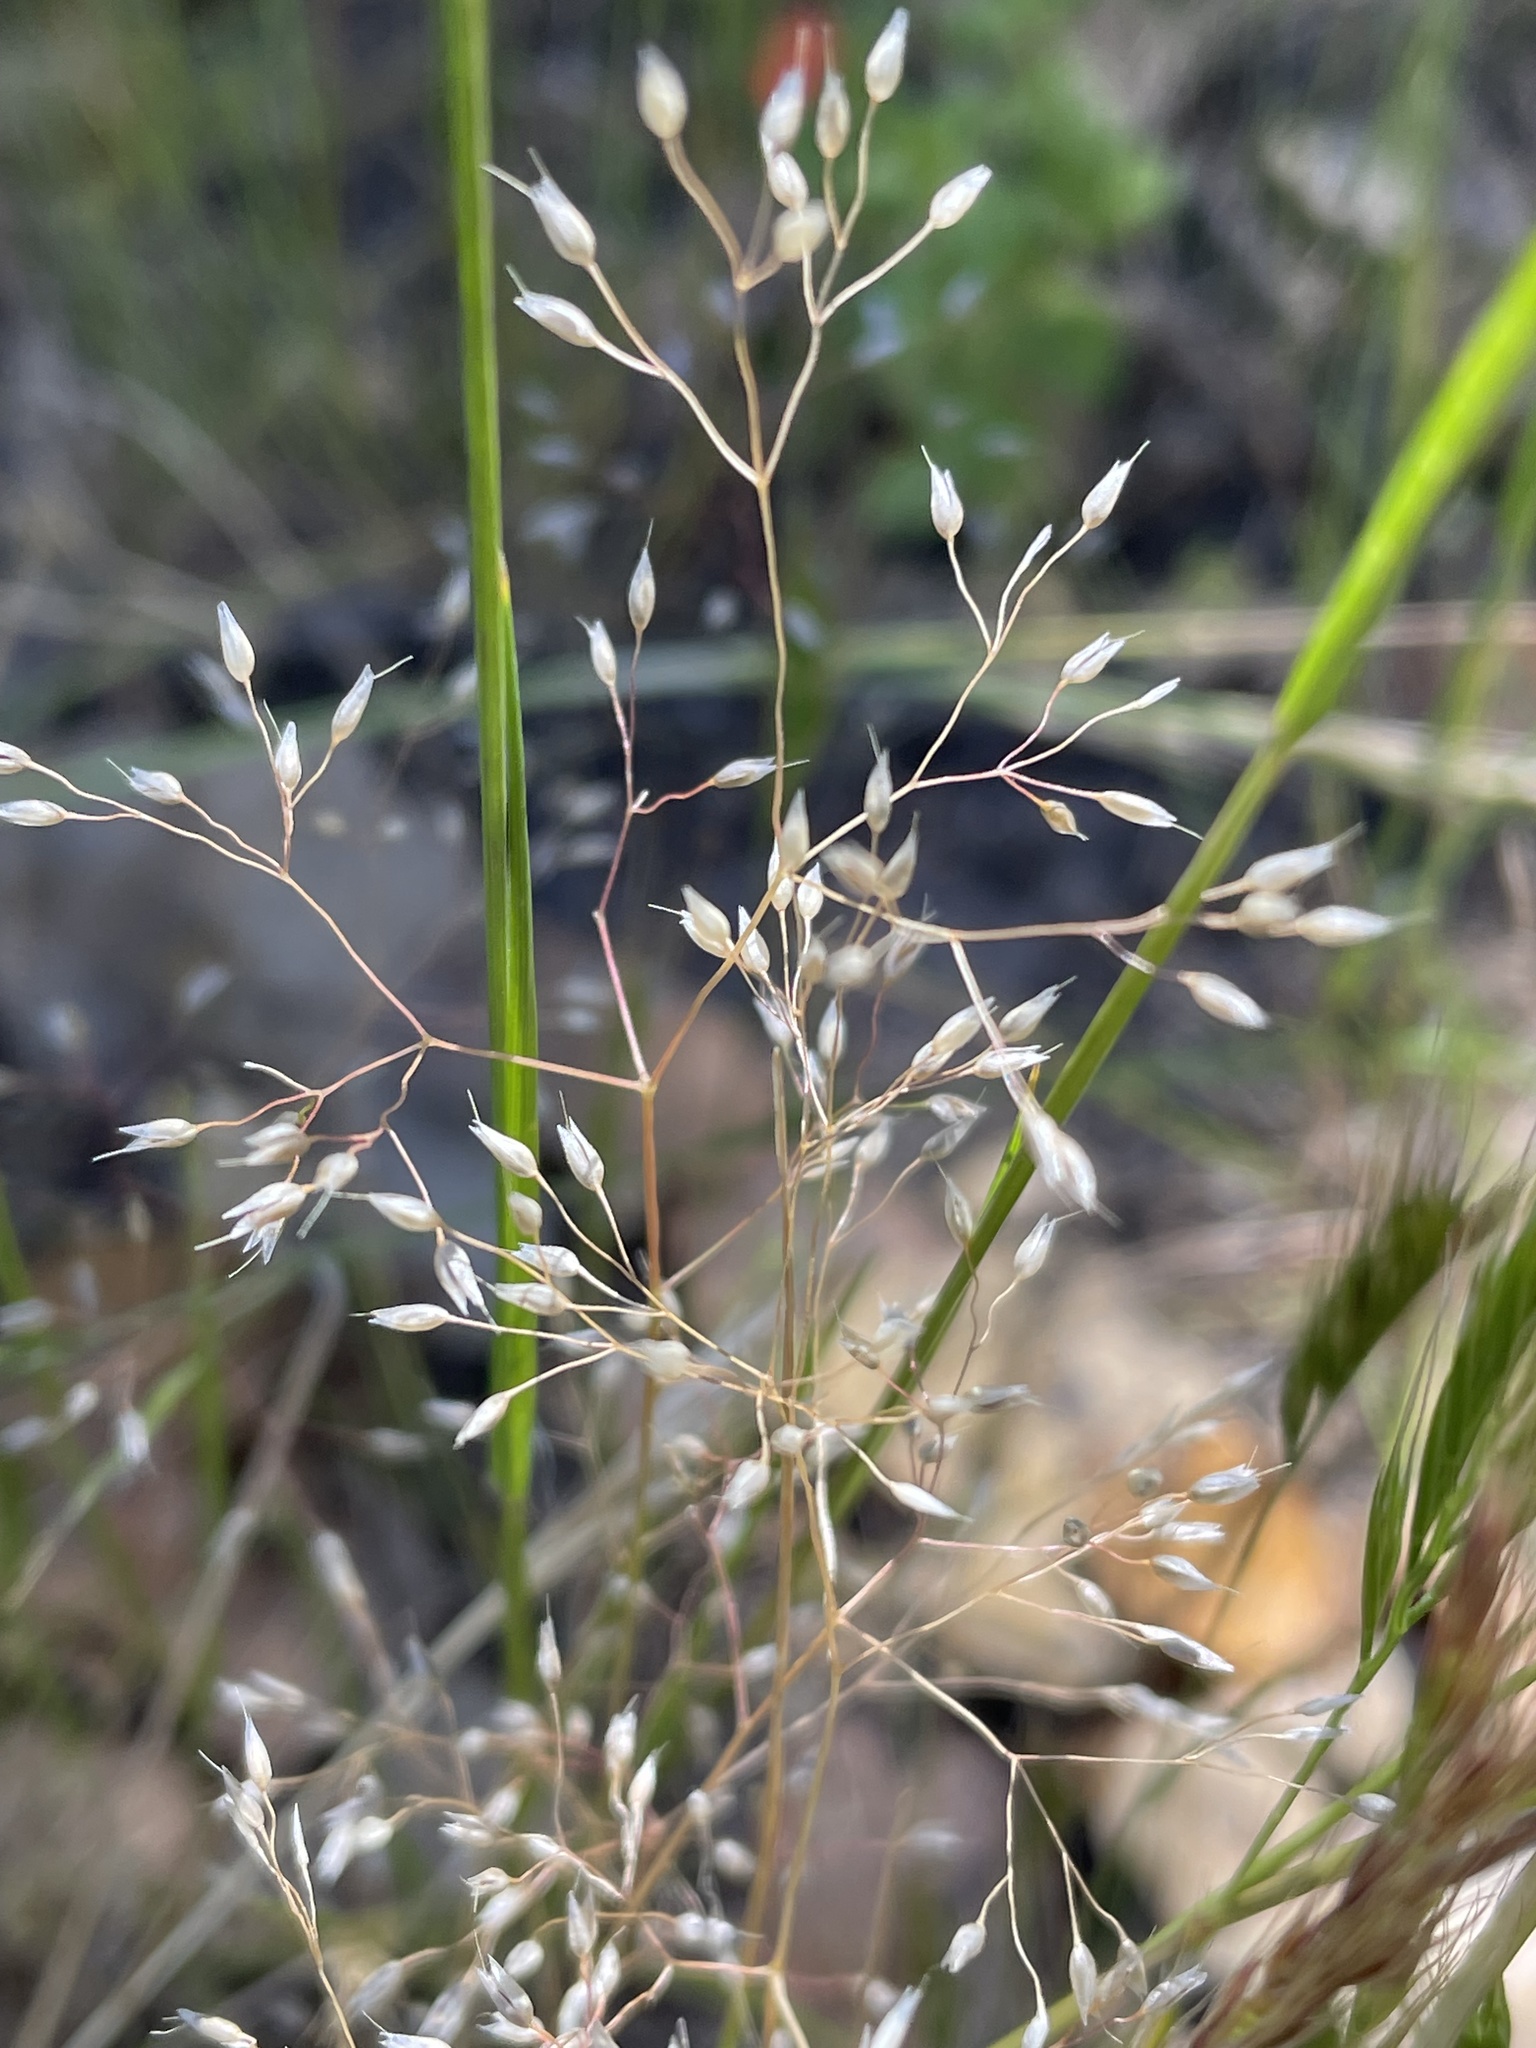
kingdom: Plantae
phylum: Tracheophyta
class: Liliopsida
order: Poales
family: Poaceae
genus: Aira
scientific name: Aira caryophyllea
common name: Silver hairgrass
